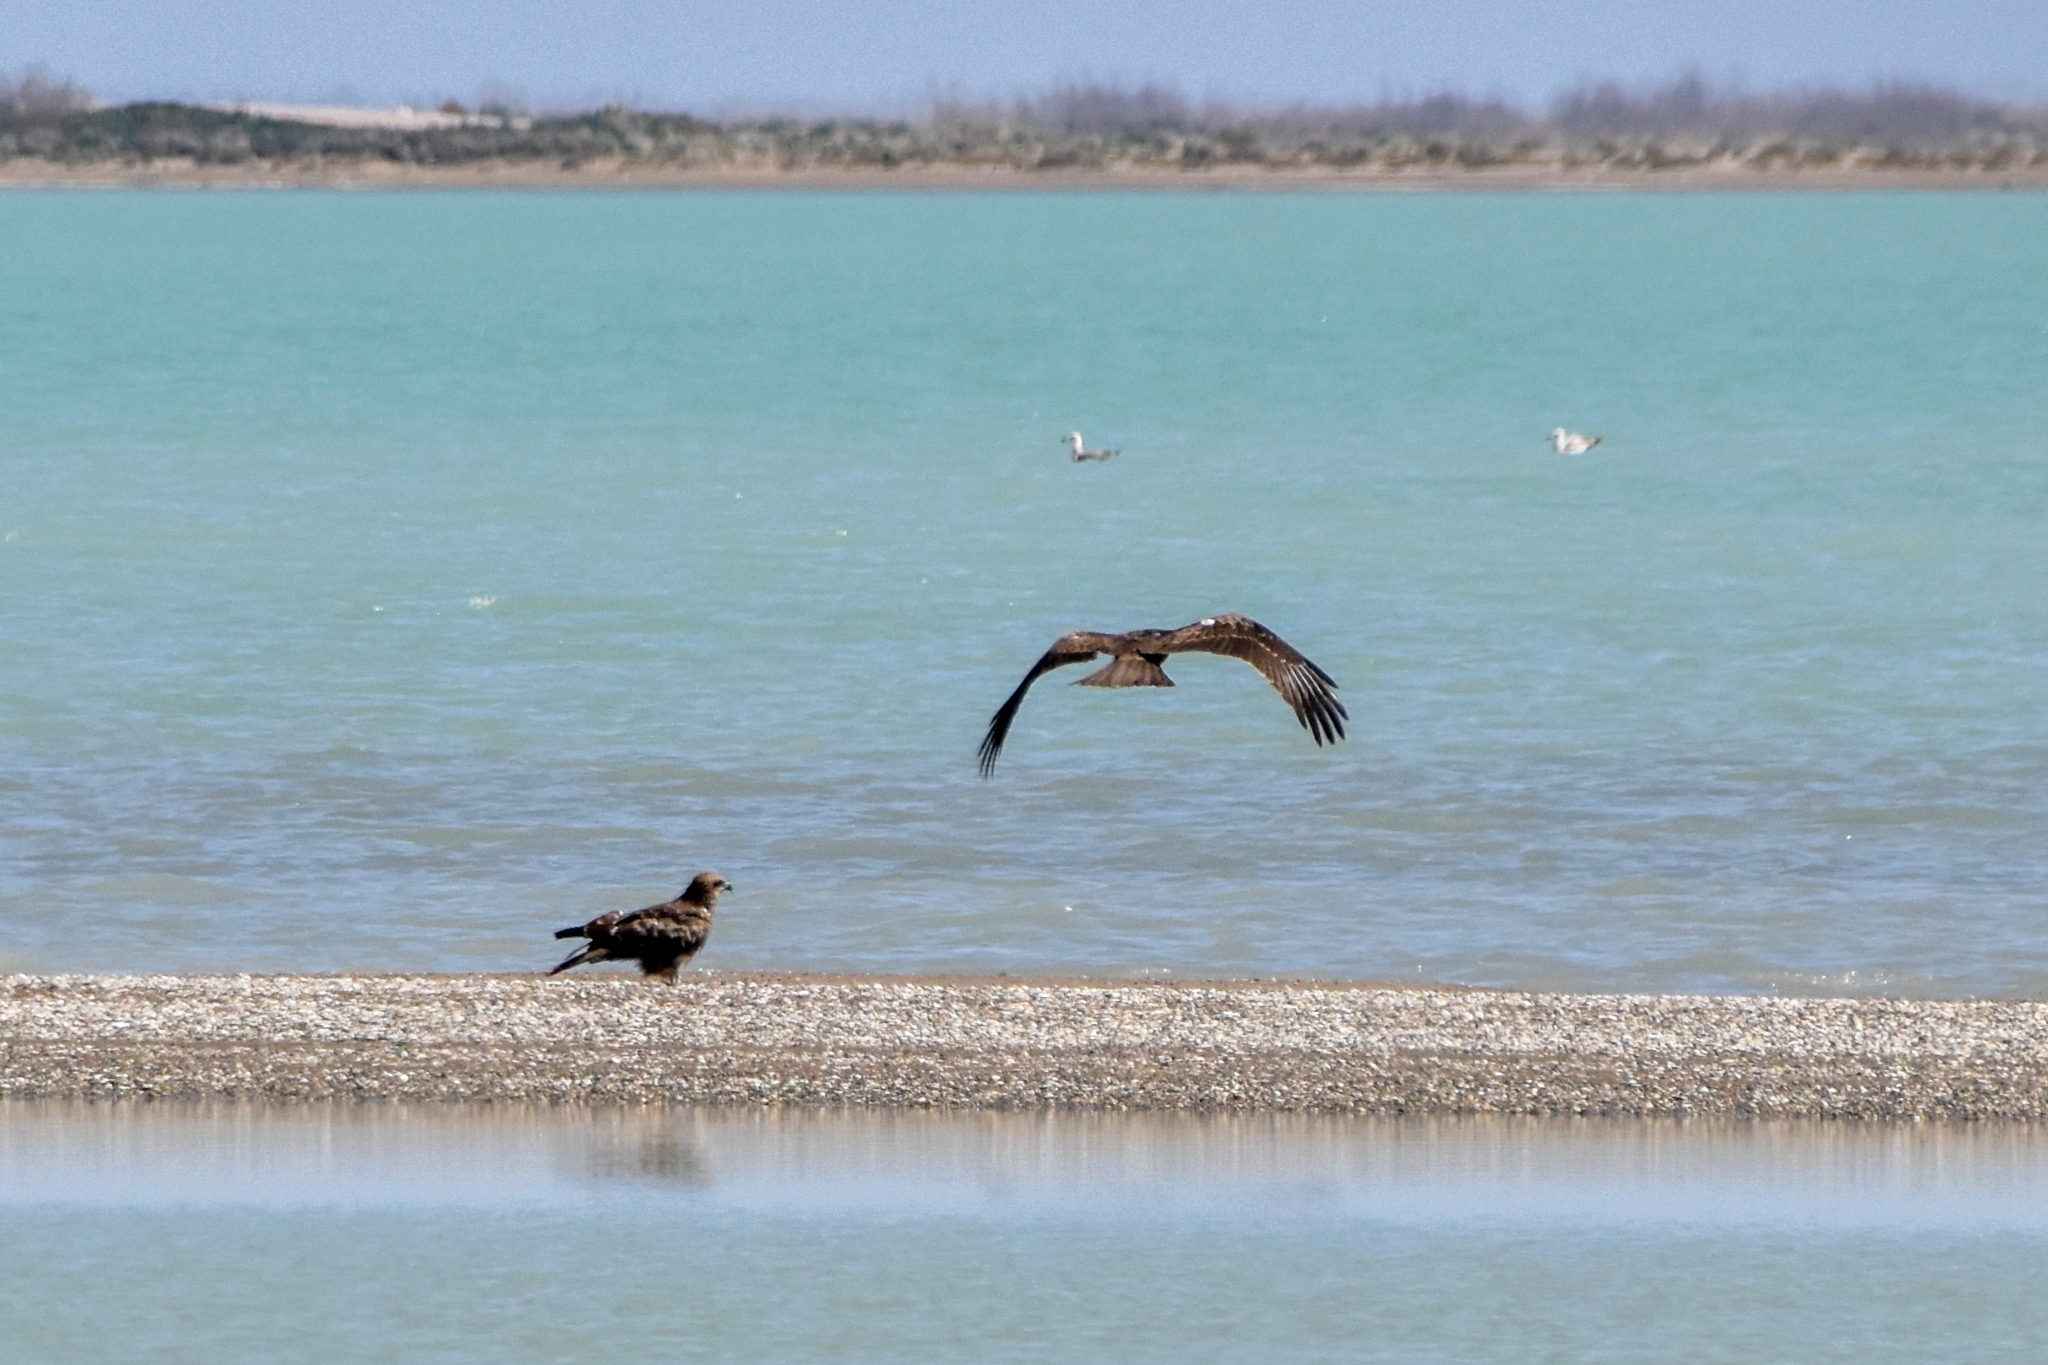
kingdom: Animalia
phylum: Chordata
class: Aves
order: Accipitriformes
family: Accipitridae
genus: Milvus
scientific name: Milvus migrans
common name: Black kite
